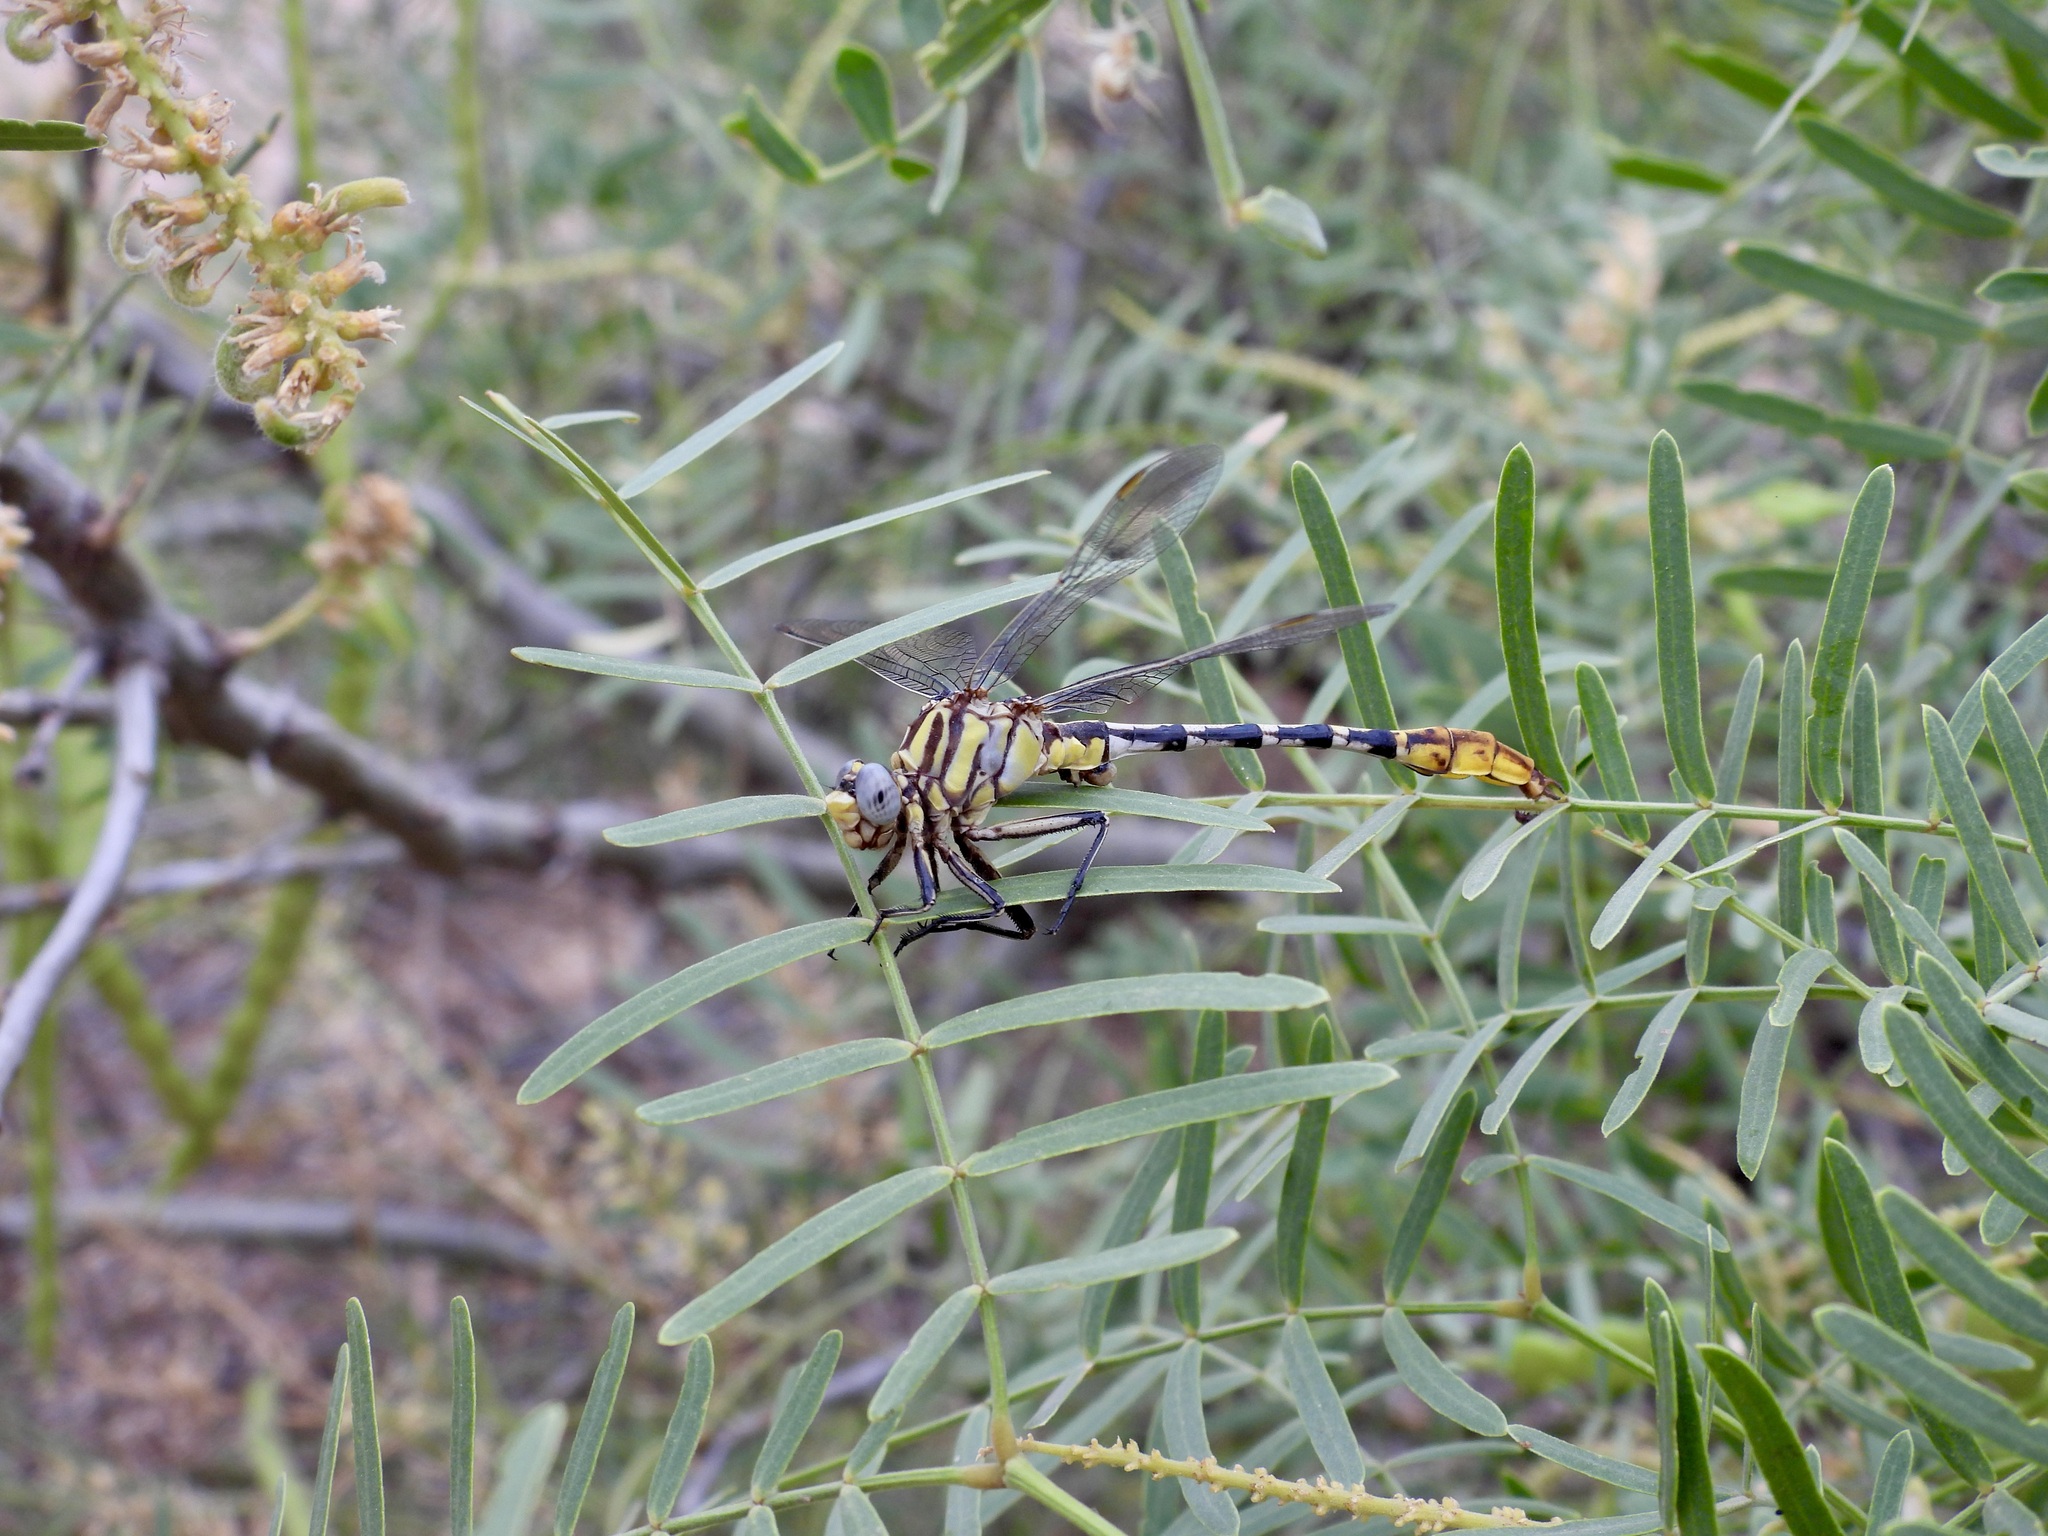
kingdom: Animalia
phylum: Arthropoda
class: Insecta
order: Odonata
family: Gomphidae
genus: Phanogomphus
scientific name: Phanogomphus militaris
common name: Sulphur-tipped clubtail
